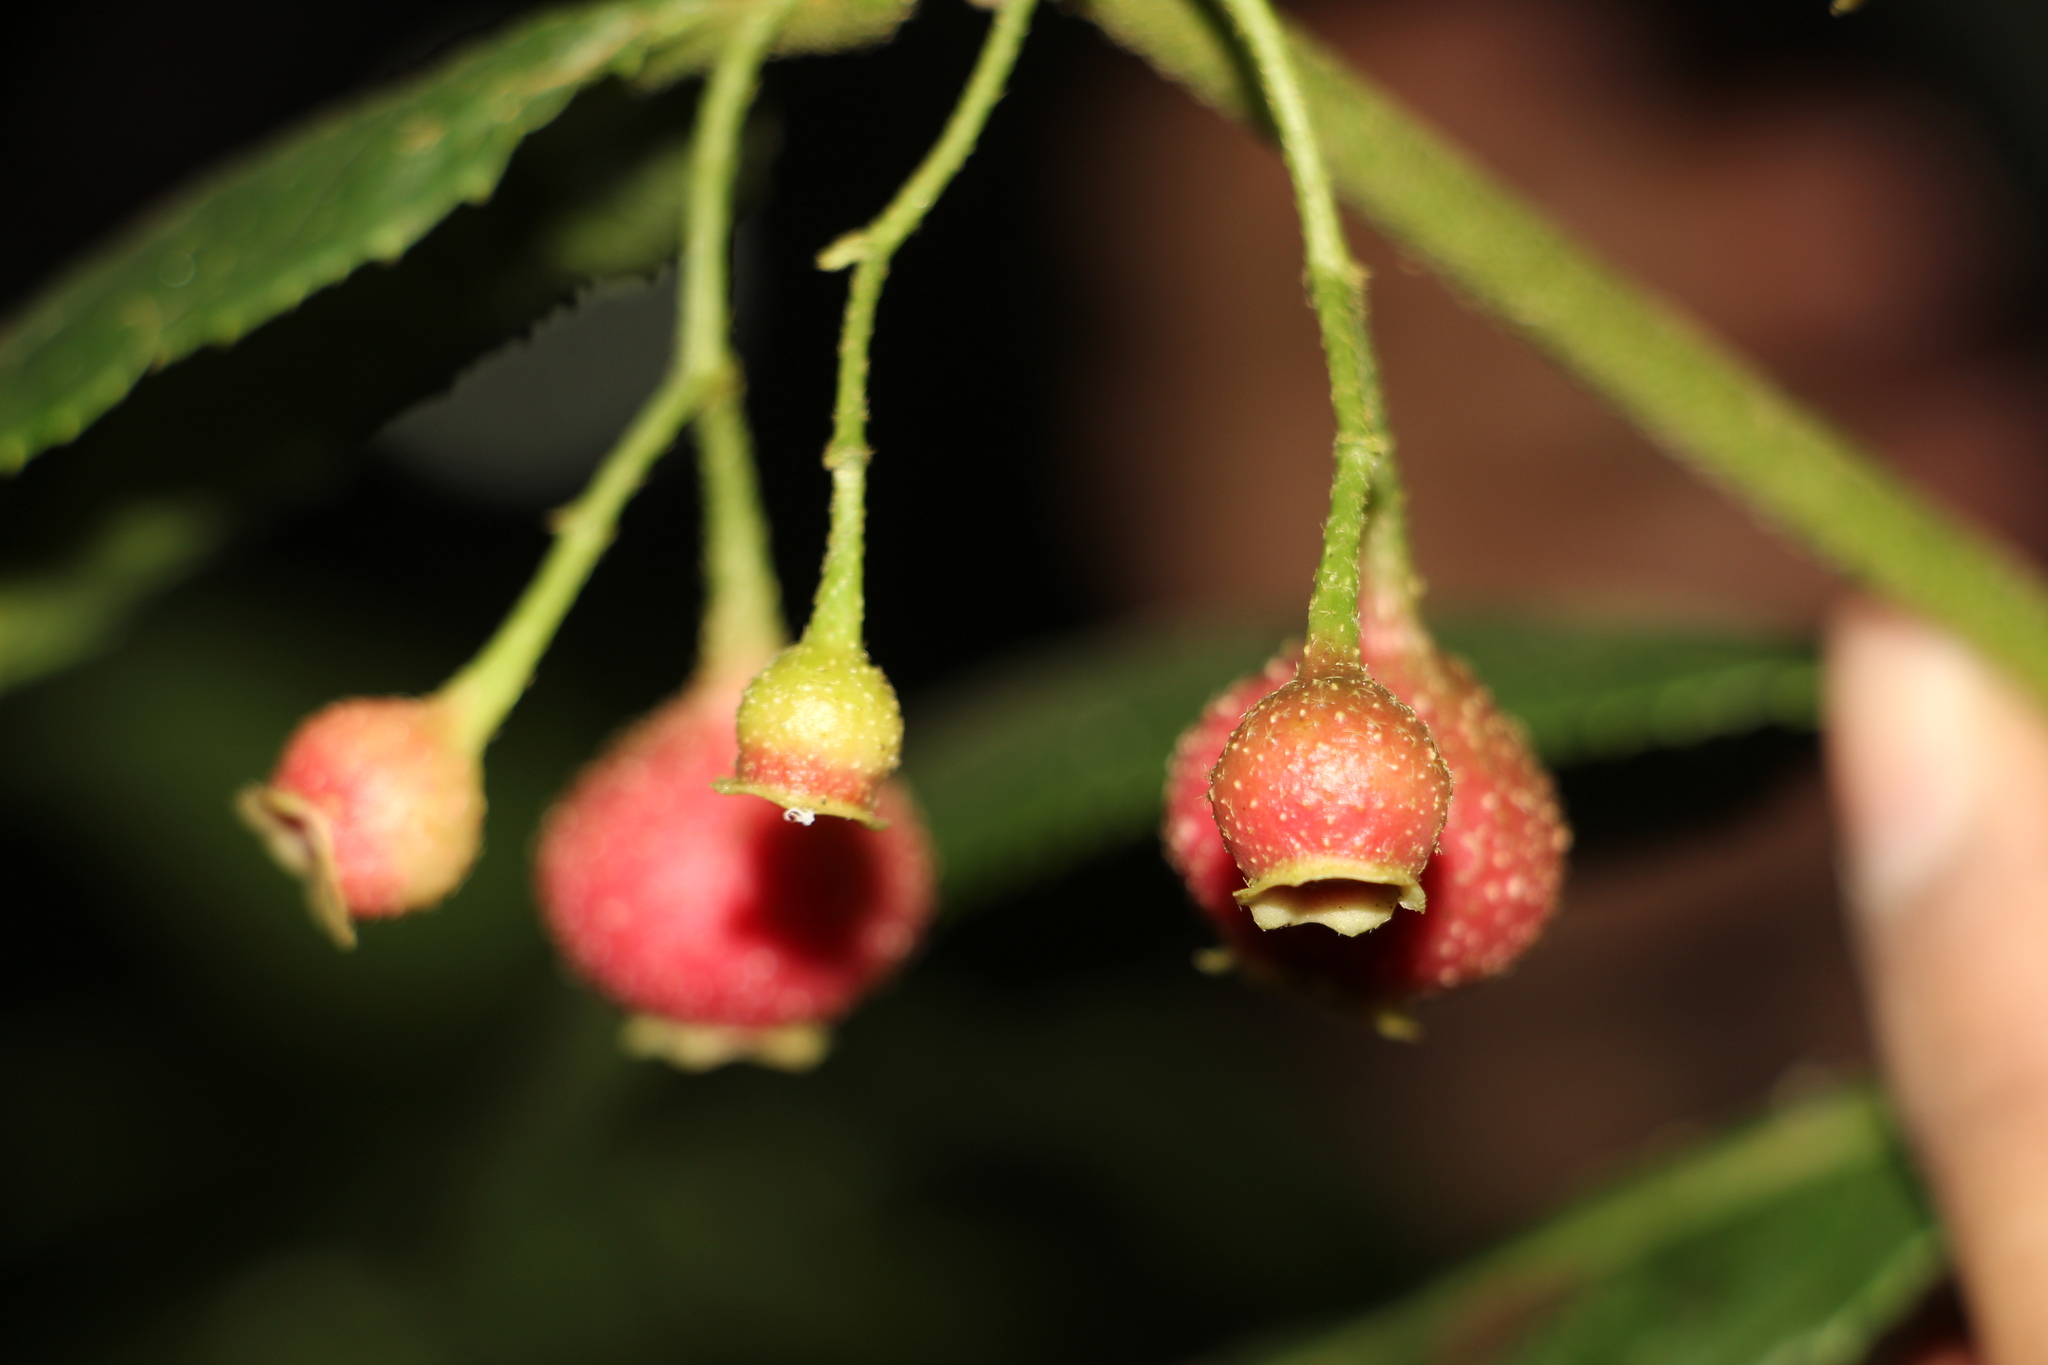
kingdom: Plantae
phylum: Tracheophyta
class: Magnoliopsida
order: Laurales
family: Siparunaceae
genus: Siparuna
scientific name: Siparuna thecaphora
